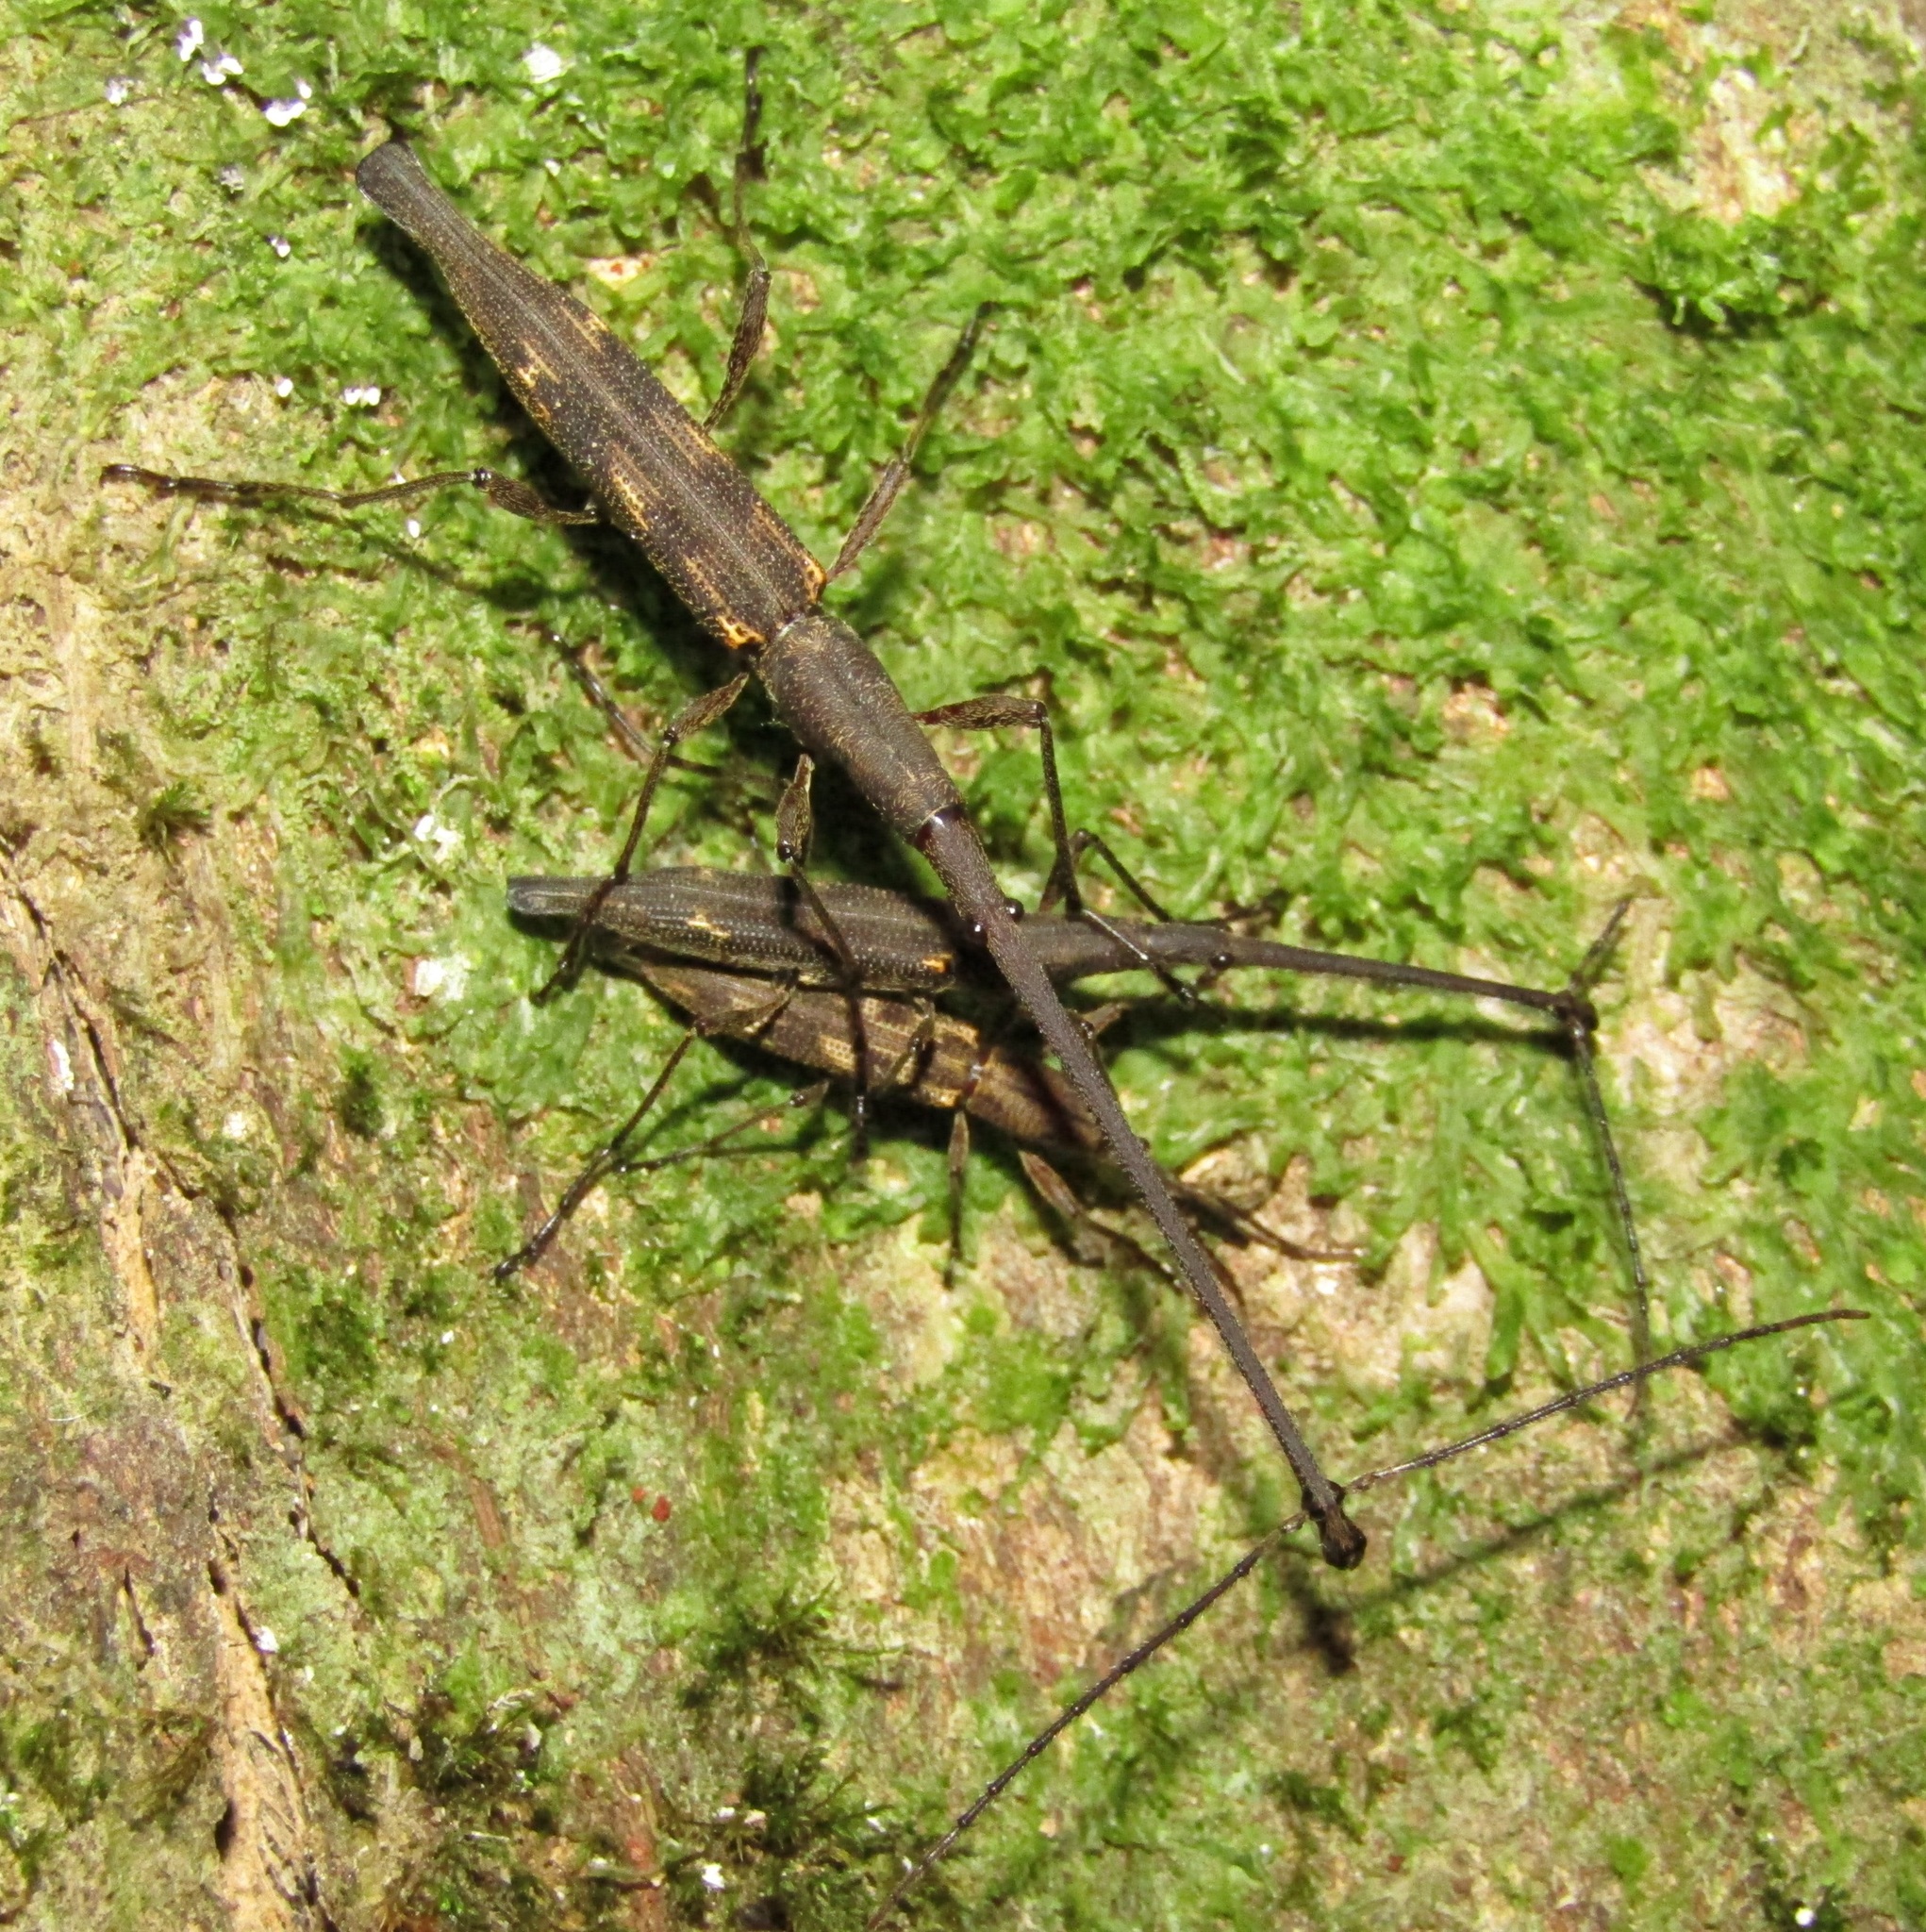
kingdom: Animalia
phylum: Arthropoda
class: Insecta
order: Coleoptera
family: Brentidae
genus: Lasiorhynchus
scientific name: Lasiorhynchus barbicornis
